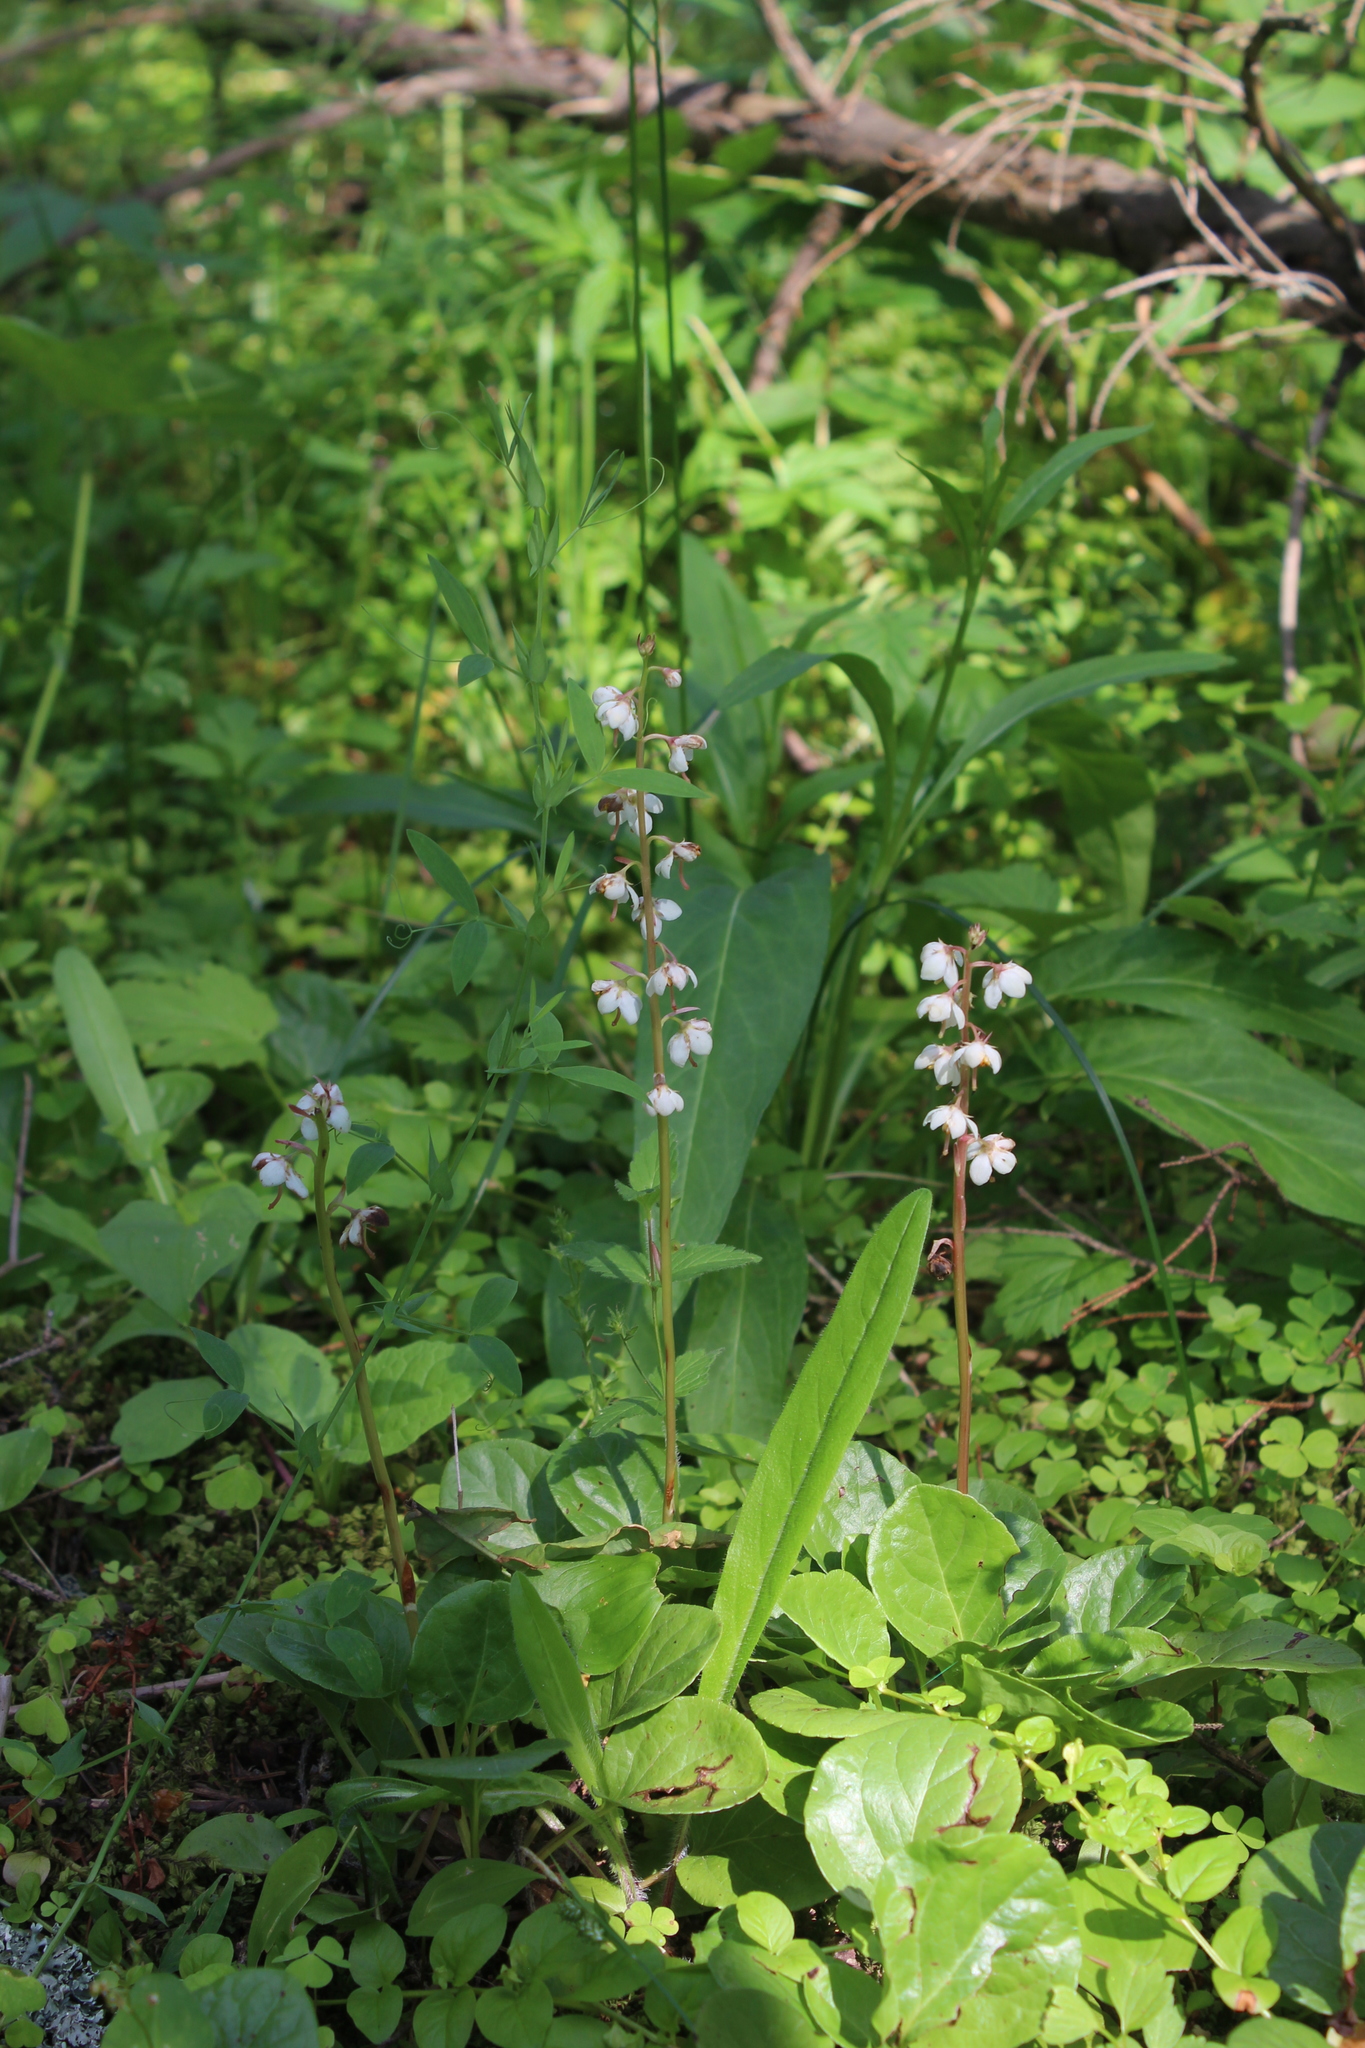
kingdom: Plantae
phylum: Tracheophyta
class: Magnoliopsida
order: Ericales
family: Ericaceae
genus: Pyrola
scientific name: Pyrola rotundifolia
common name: Round-leaved wintergreen
